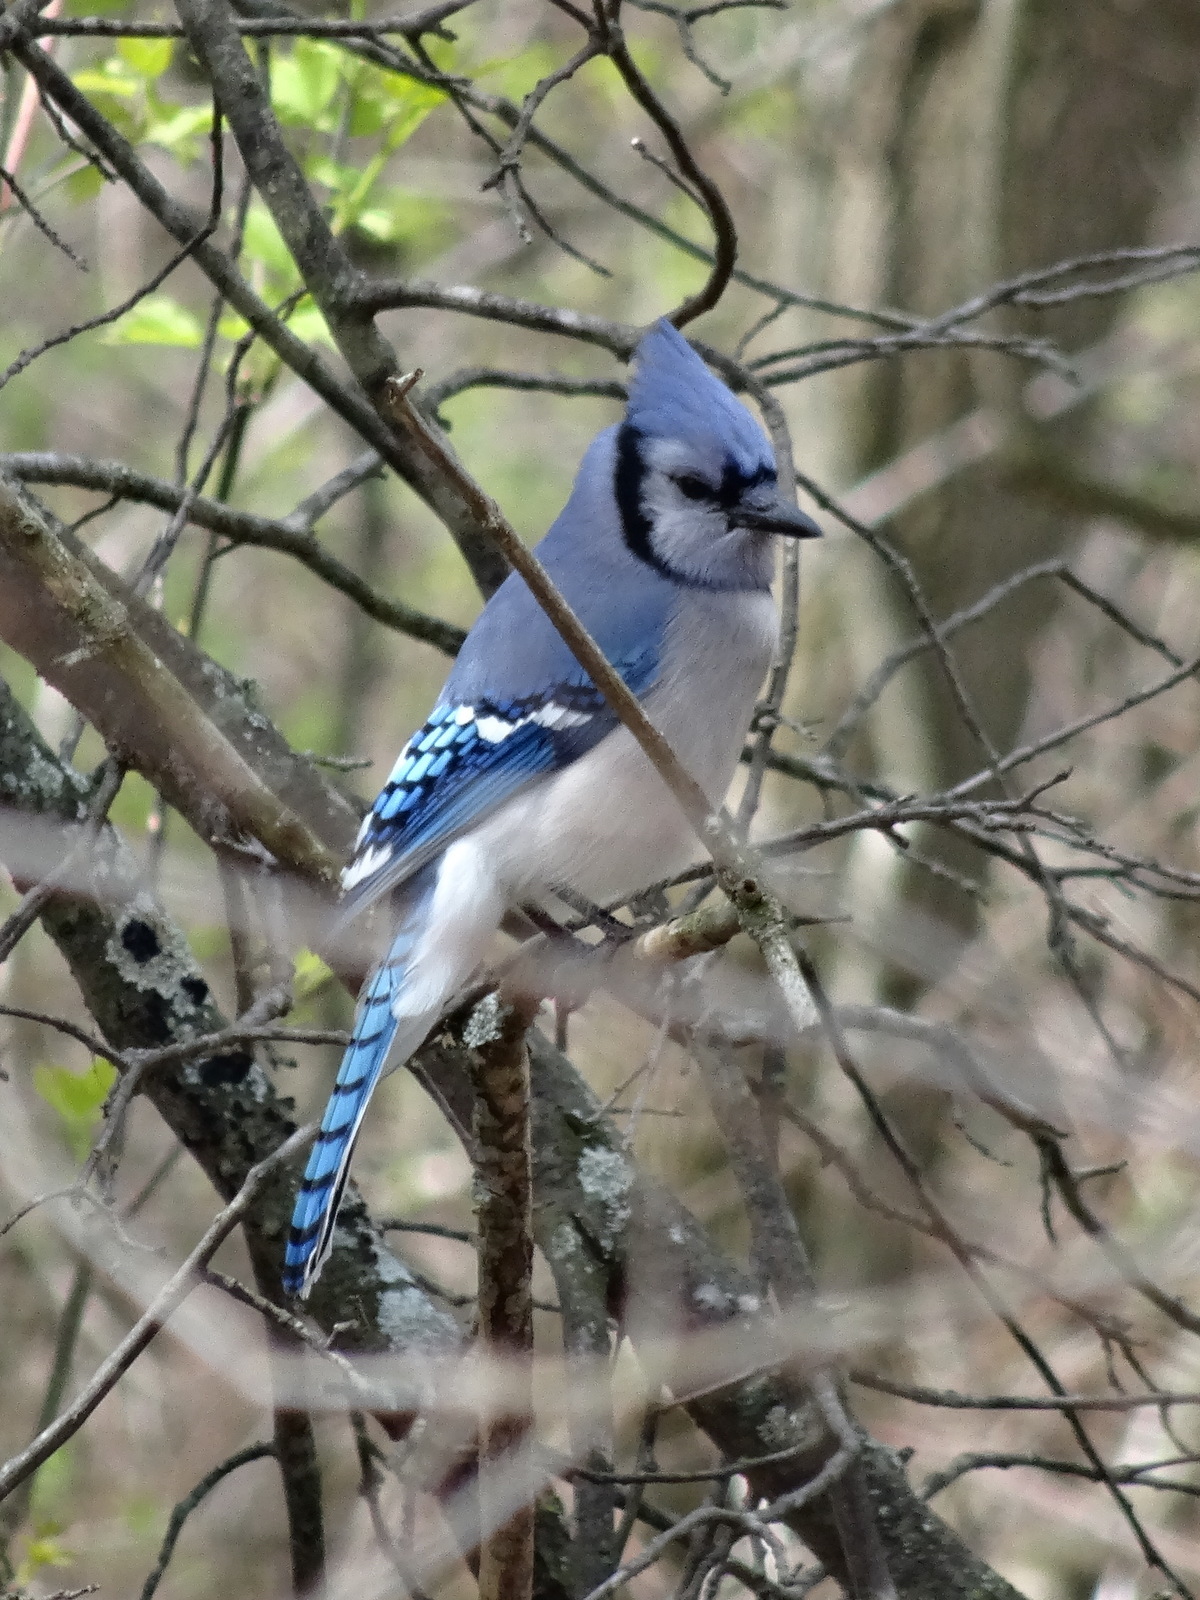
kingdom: Animalia
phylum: Chordata
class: Aves
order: Passeriformes
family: Corvidae
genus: Cyanocitta
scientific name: Cyanocitta cristata
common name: Blue jay
